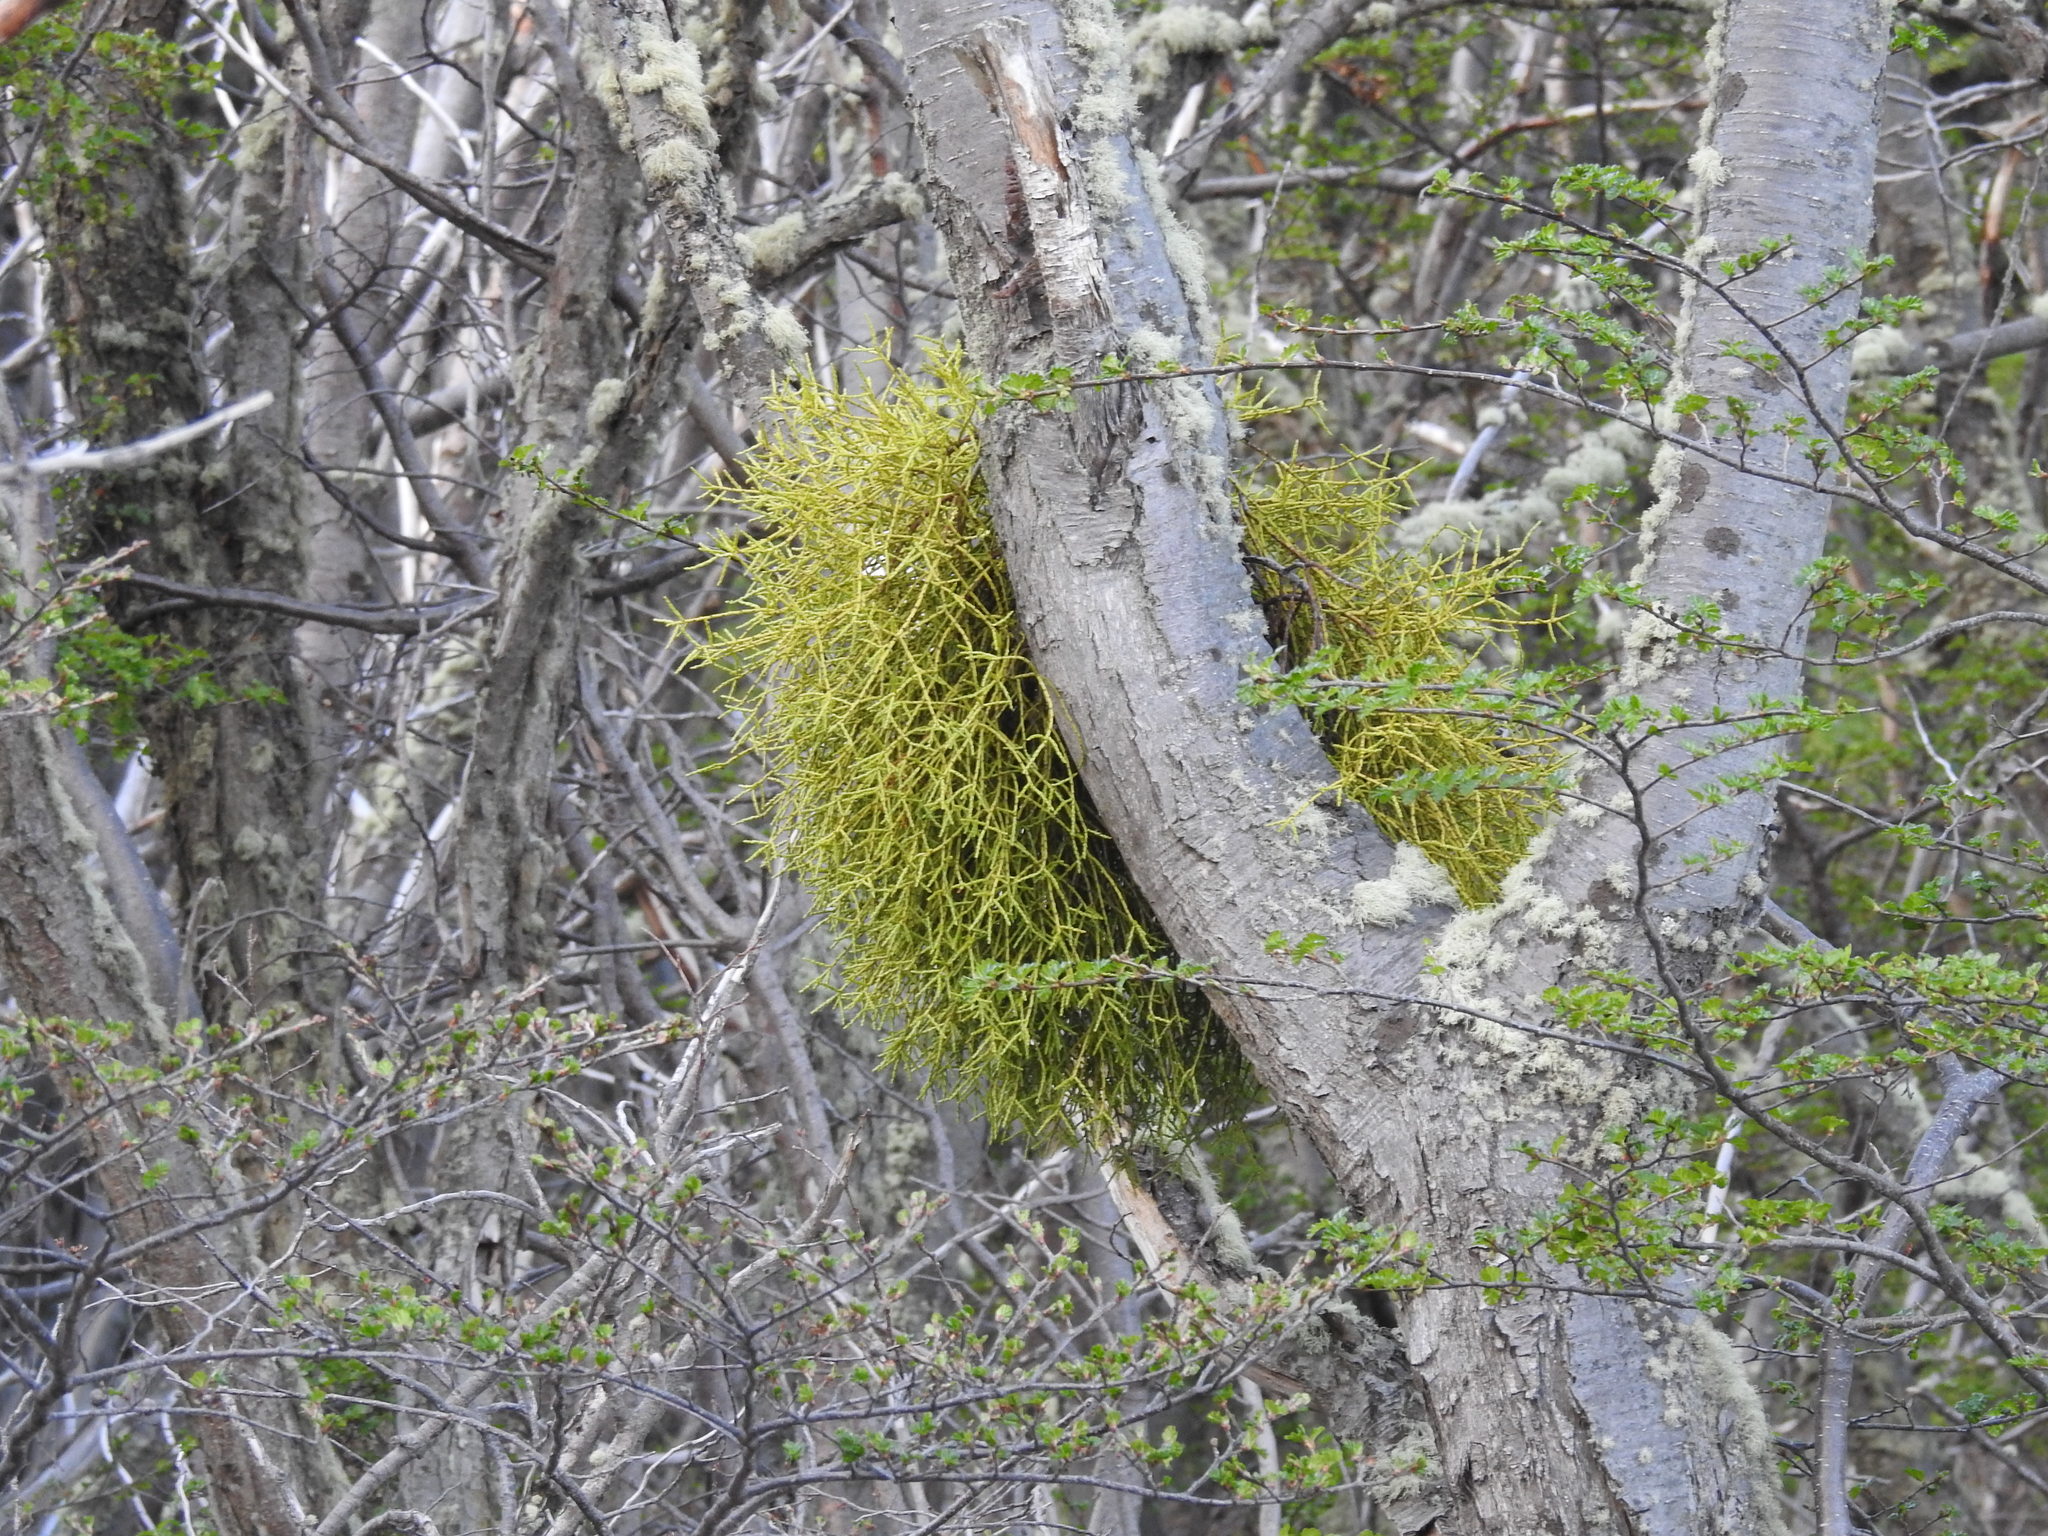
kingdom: Plantae
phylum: Tracheophyta
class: Magnoliopsida
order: Santalales
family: Misodendraceae
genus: Misodendrum
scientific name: Misodendrum punctulatum
